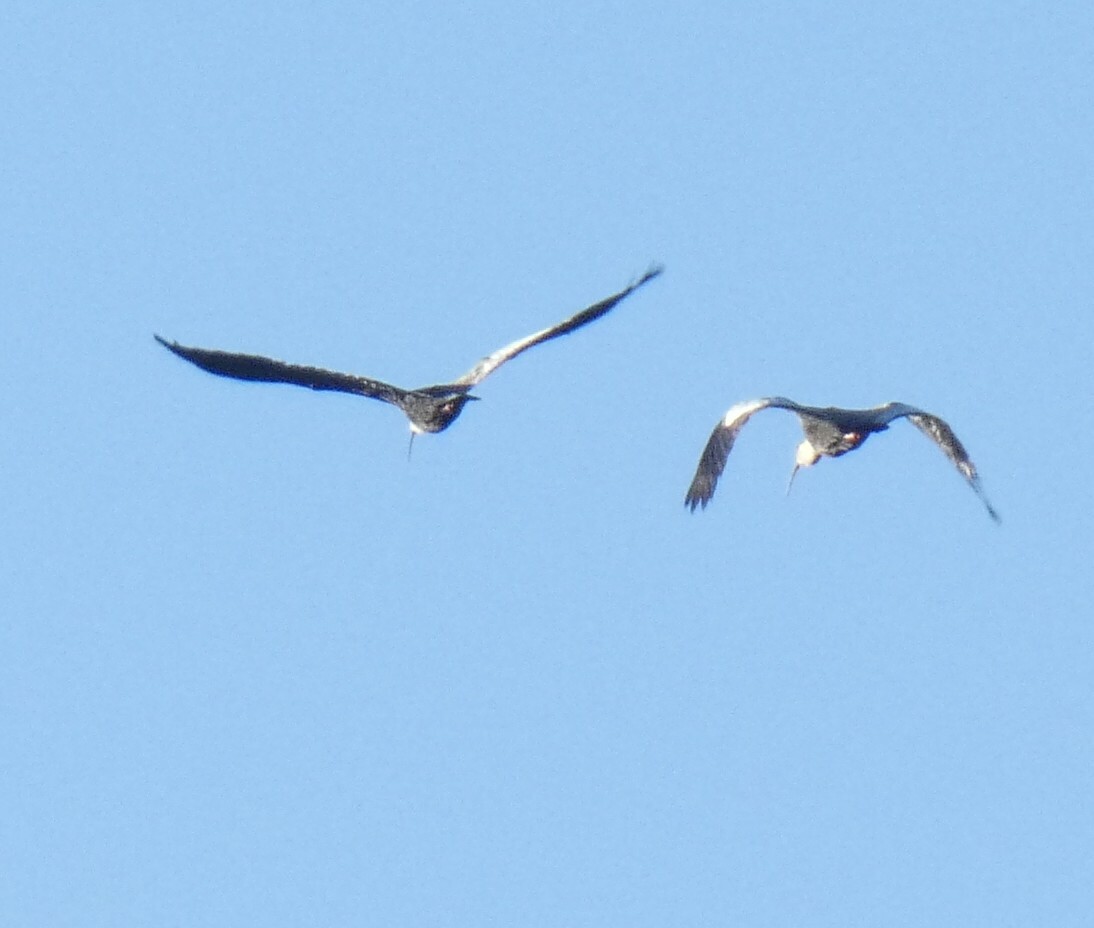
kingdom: Animalia
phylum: Chordata
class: Aves
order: Pelecaniformes
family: Threskiornithidae
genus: Theristicus
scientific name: Theristicus caudatus
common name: Buff-necked ibis
